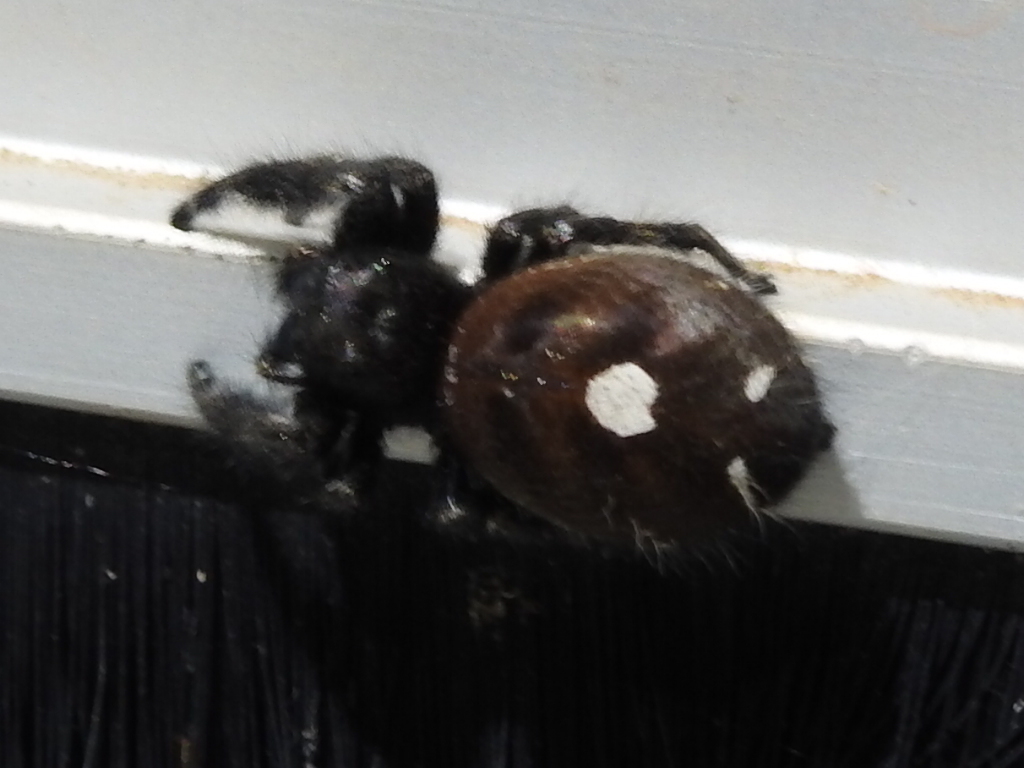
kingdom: Animalia
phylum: Arthropoda
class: Arachnida
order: Araneae
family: Salticidae
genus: Phidippus
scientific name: Phidippus audax
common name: Bold jumper
